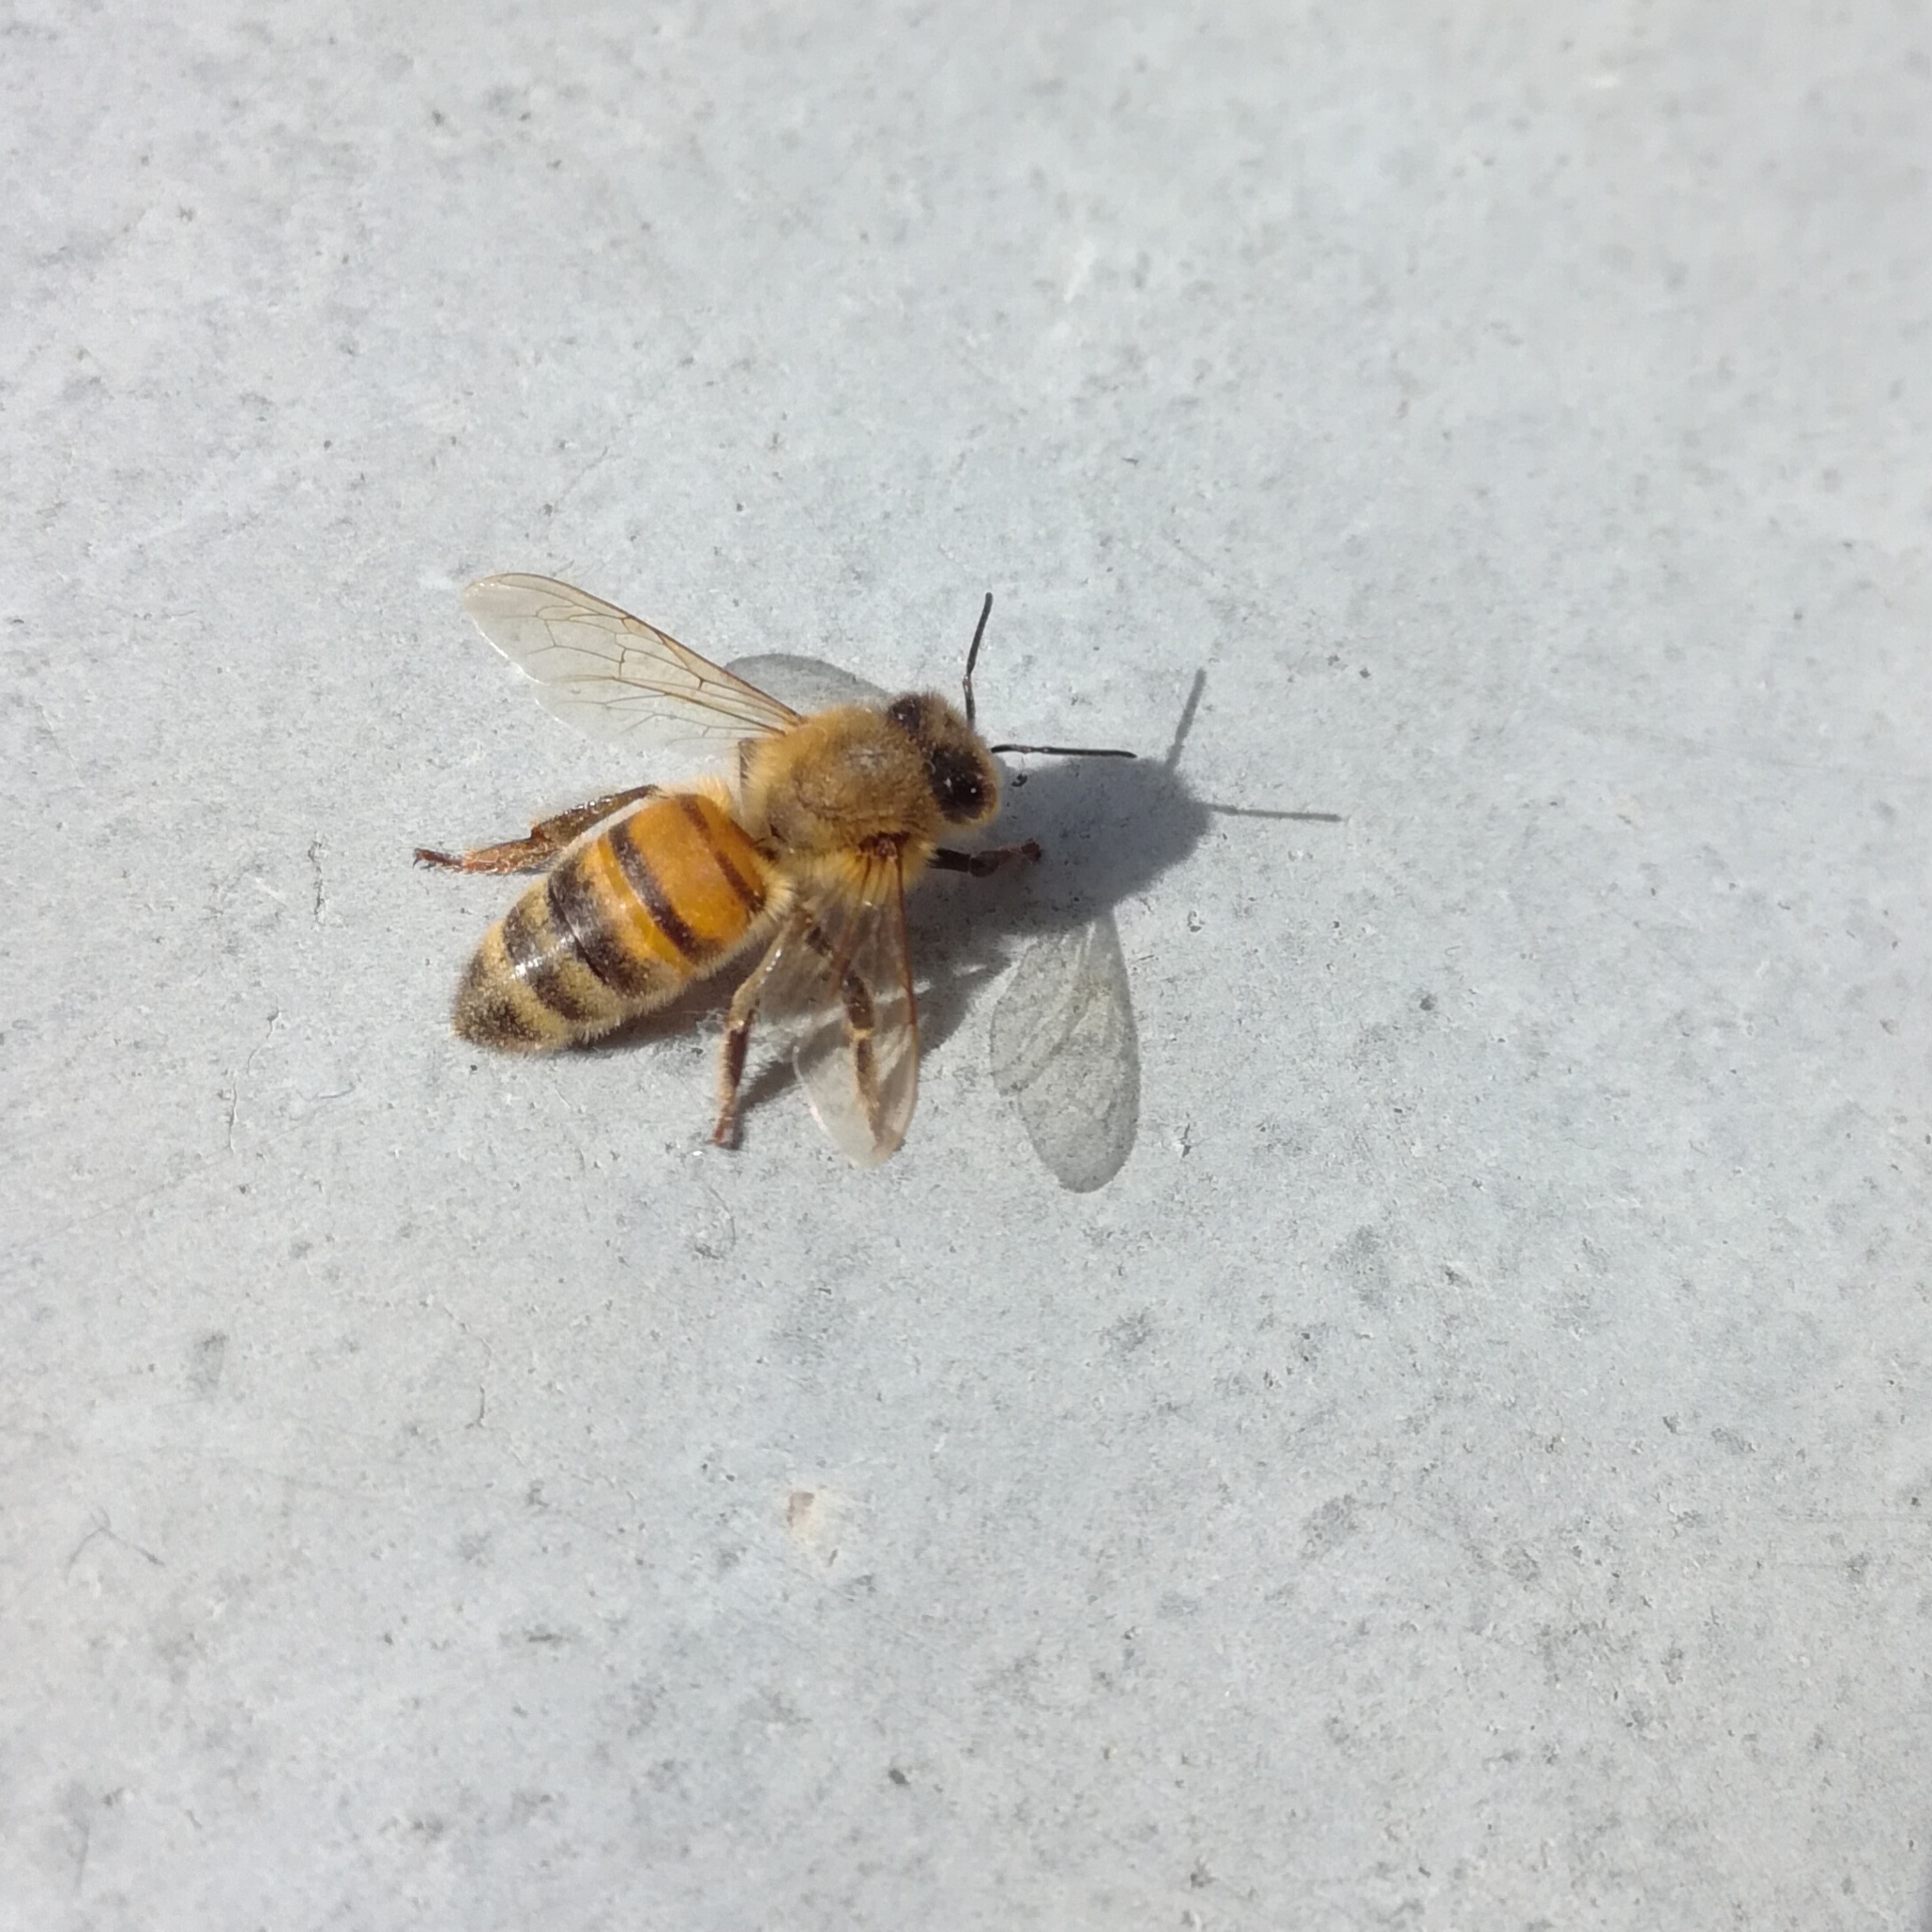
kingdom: Animalia
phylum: Arthropoda
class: Insecta
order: Hymenoptera
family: Apidae
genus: Apis
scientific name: Apis mellifera
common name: Honey bee
